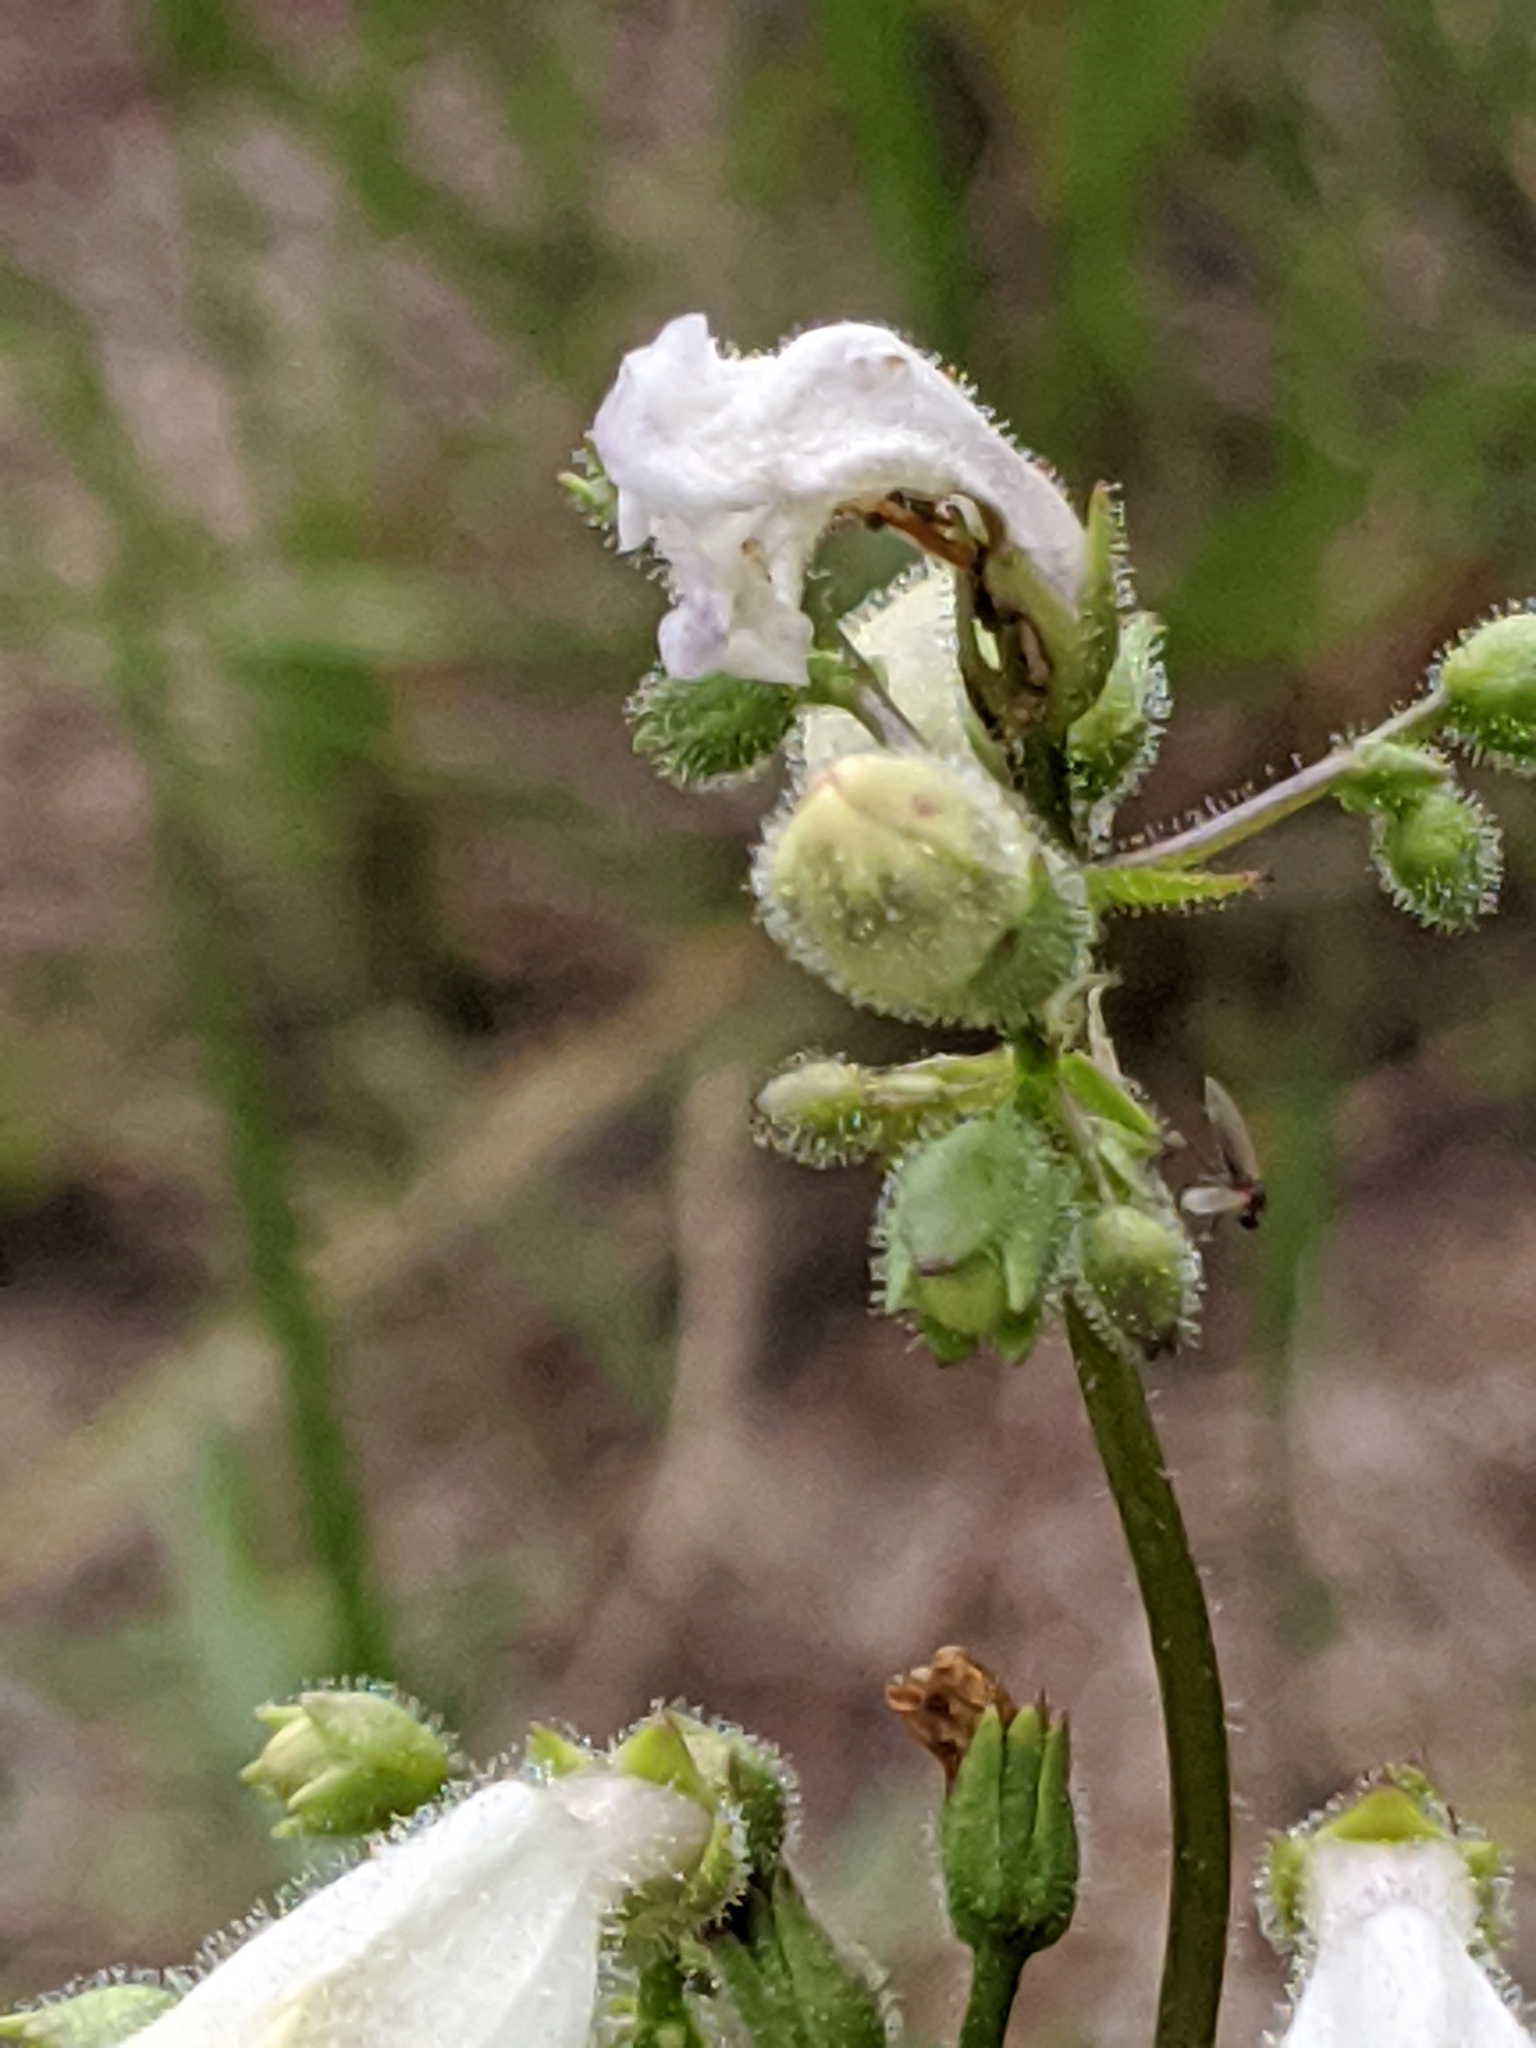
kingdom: Plantae
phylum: Tracheophyta
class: Magnoliopsida
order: Lamiales
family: Plantaginaceae
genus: Penstemon
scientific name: Penstemon multiflorus
